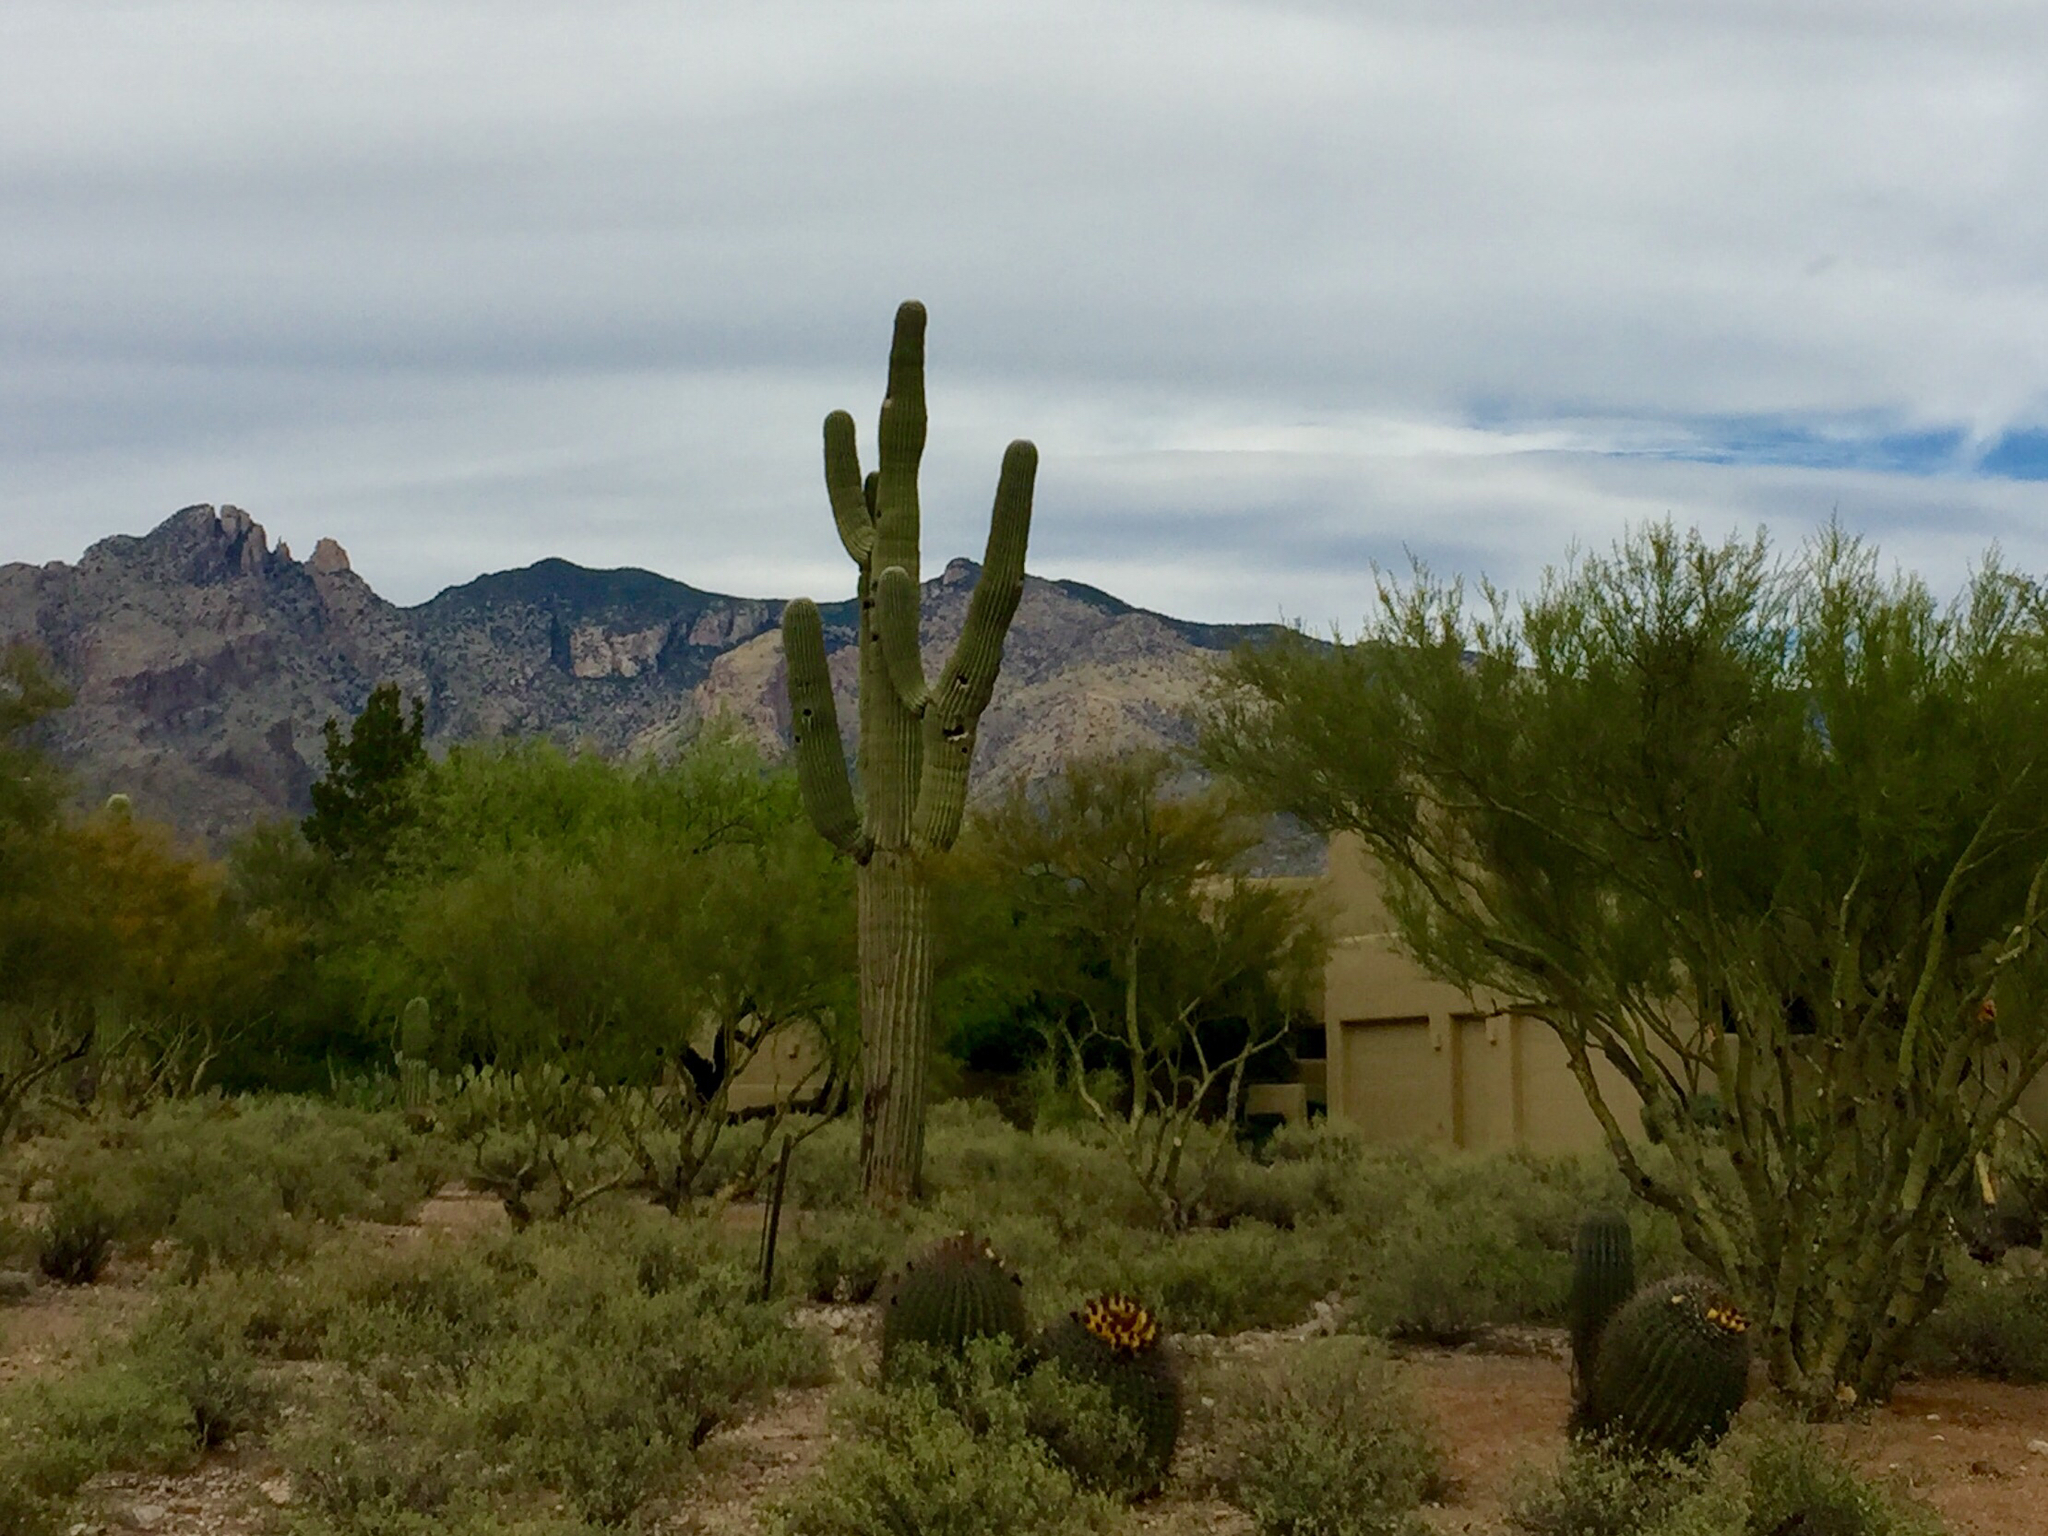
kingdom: Plantae
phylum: Tracheophyta
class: Magnoliopsida
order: Caryophyllales
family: Cactaceae
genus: Carnegiea
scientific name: Carnegiea gigantea
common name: Saguaro
